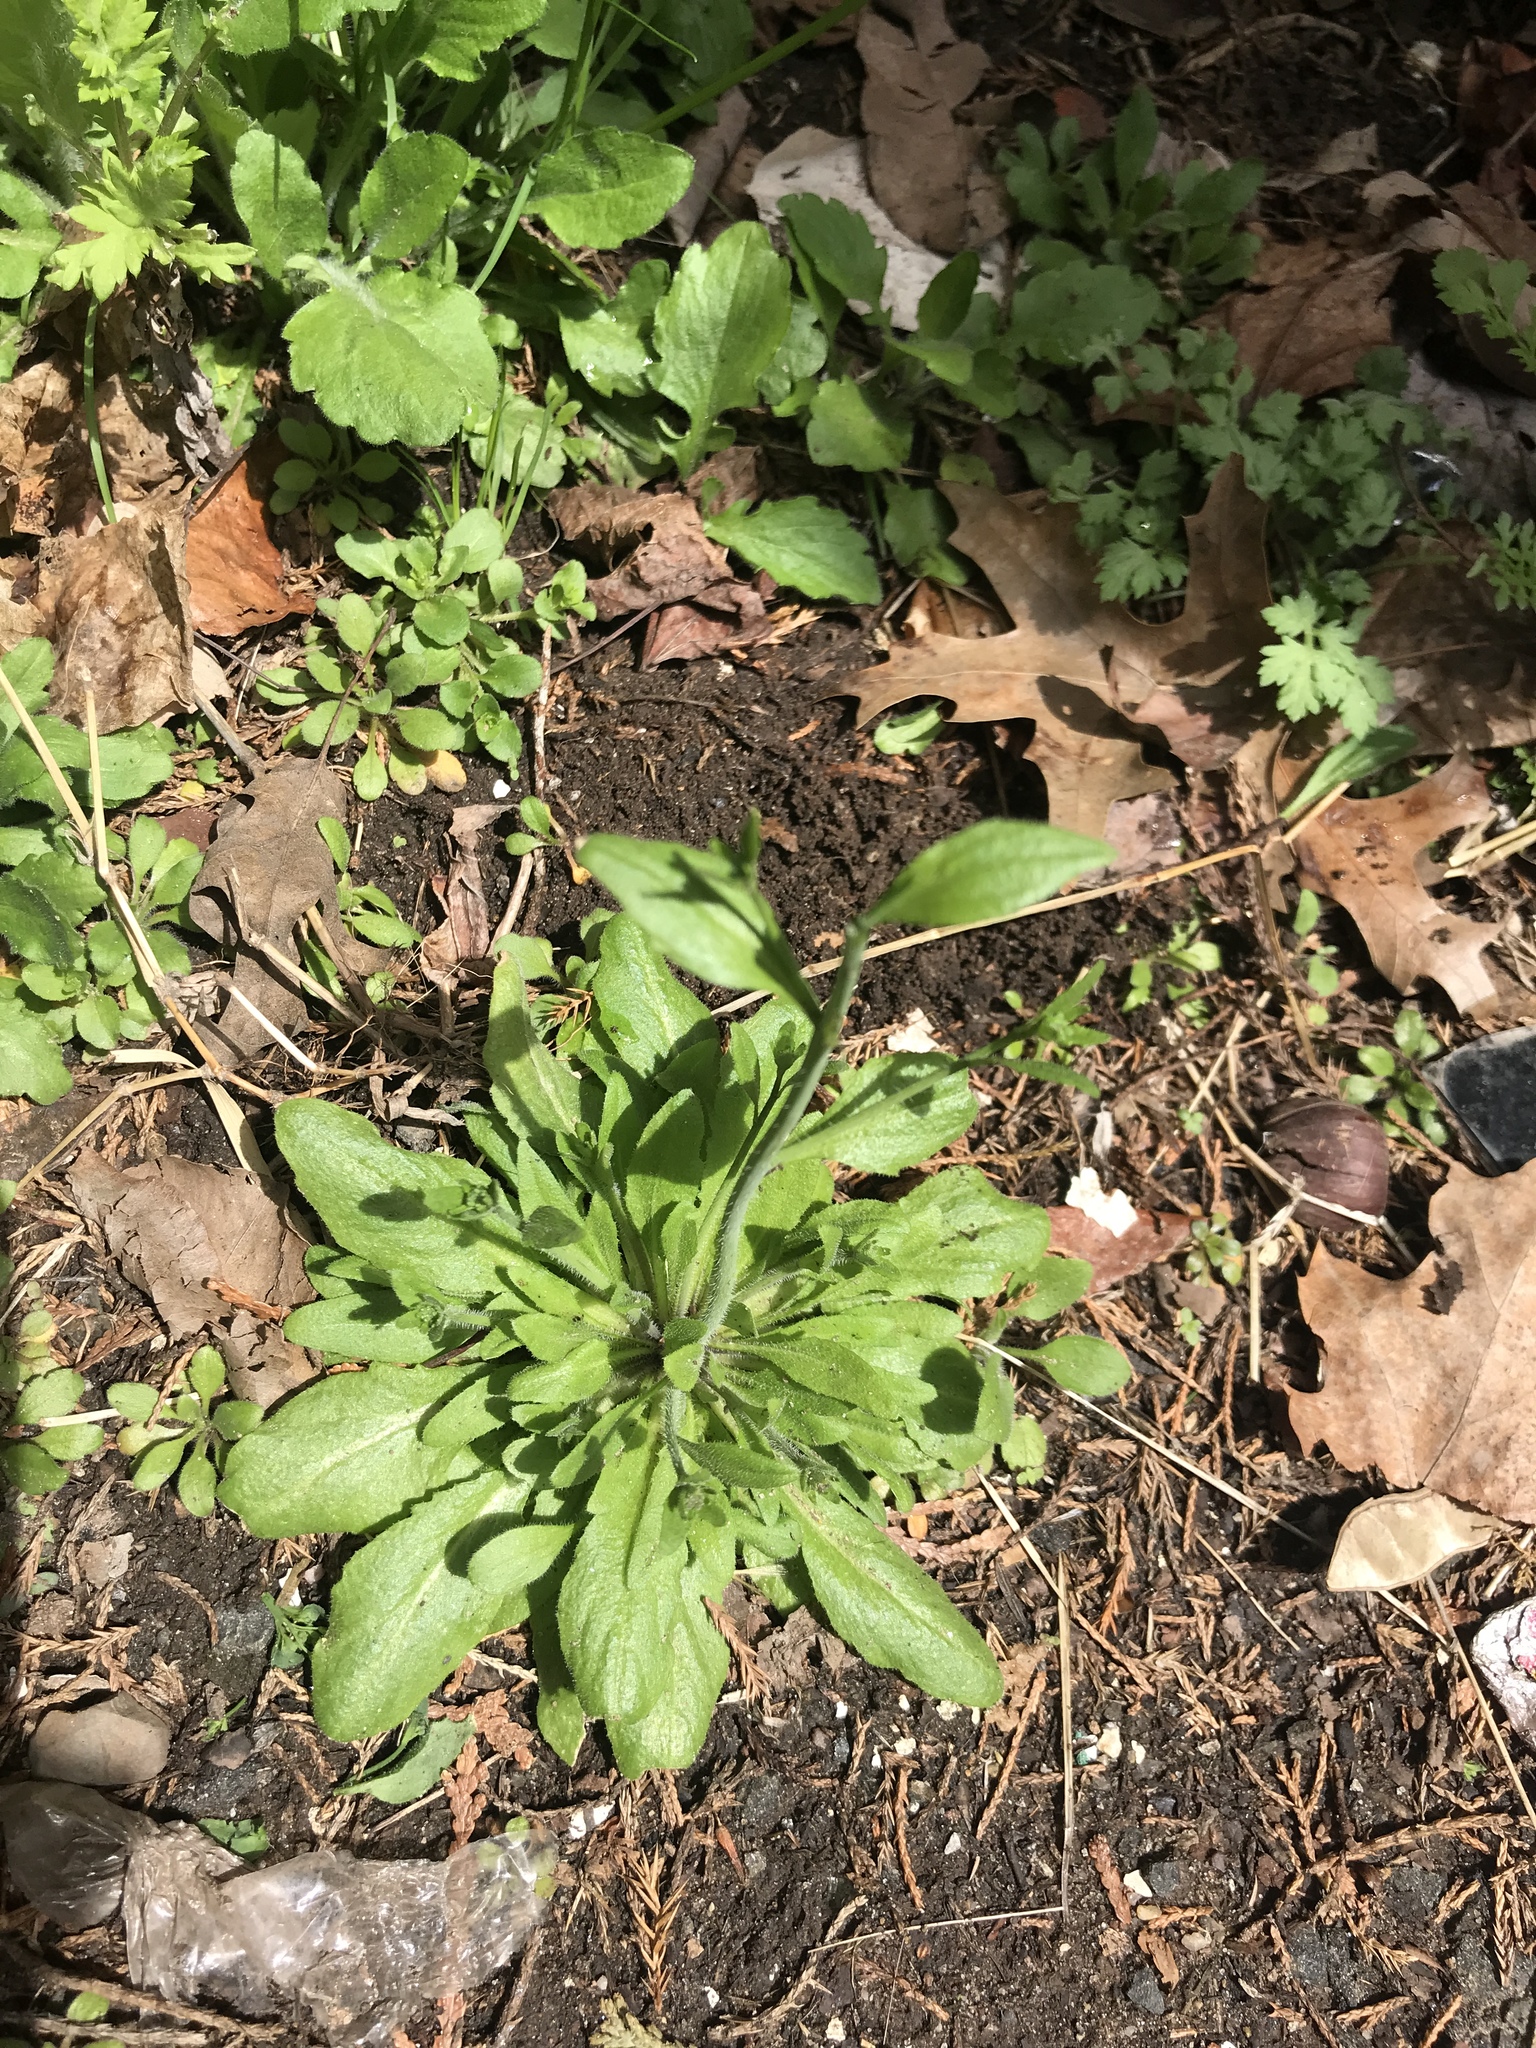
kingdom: Plantae
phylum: Tracheophyta
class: Magnoliopsida
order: Asterales
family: Asteraceae
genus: Erigeron
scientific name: Erigeron pulchellus
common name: Hairy fleabane
